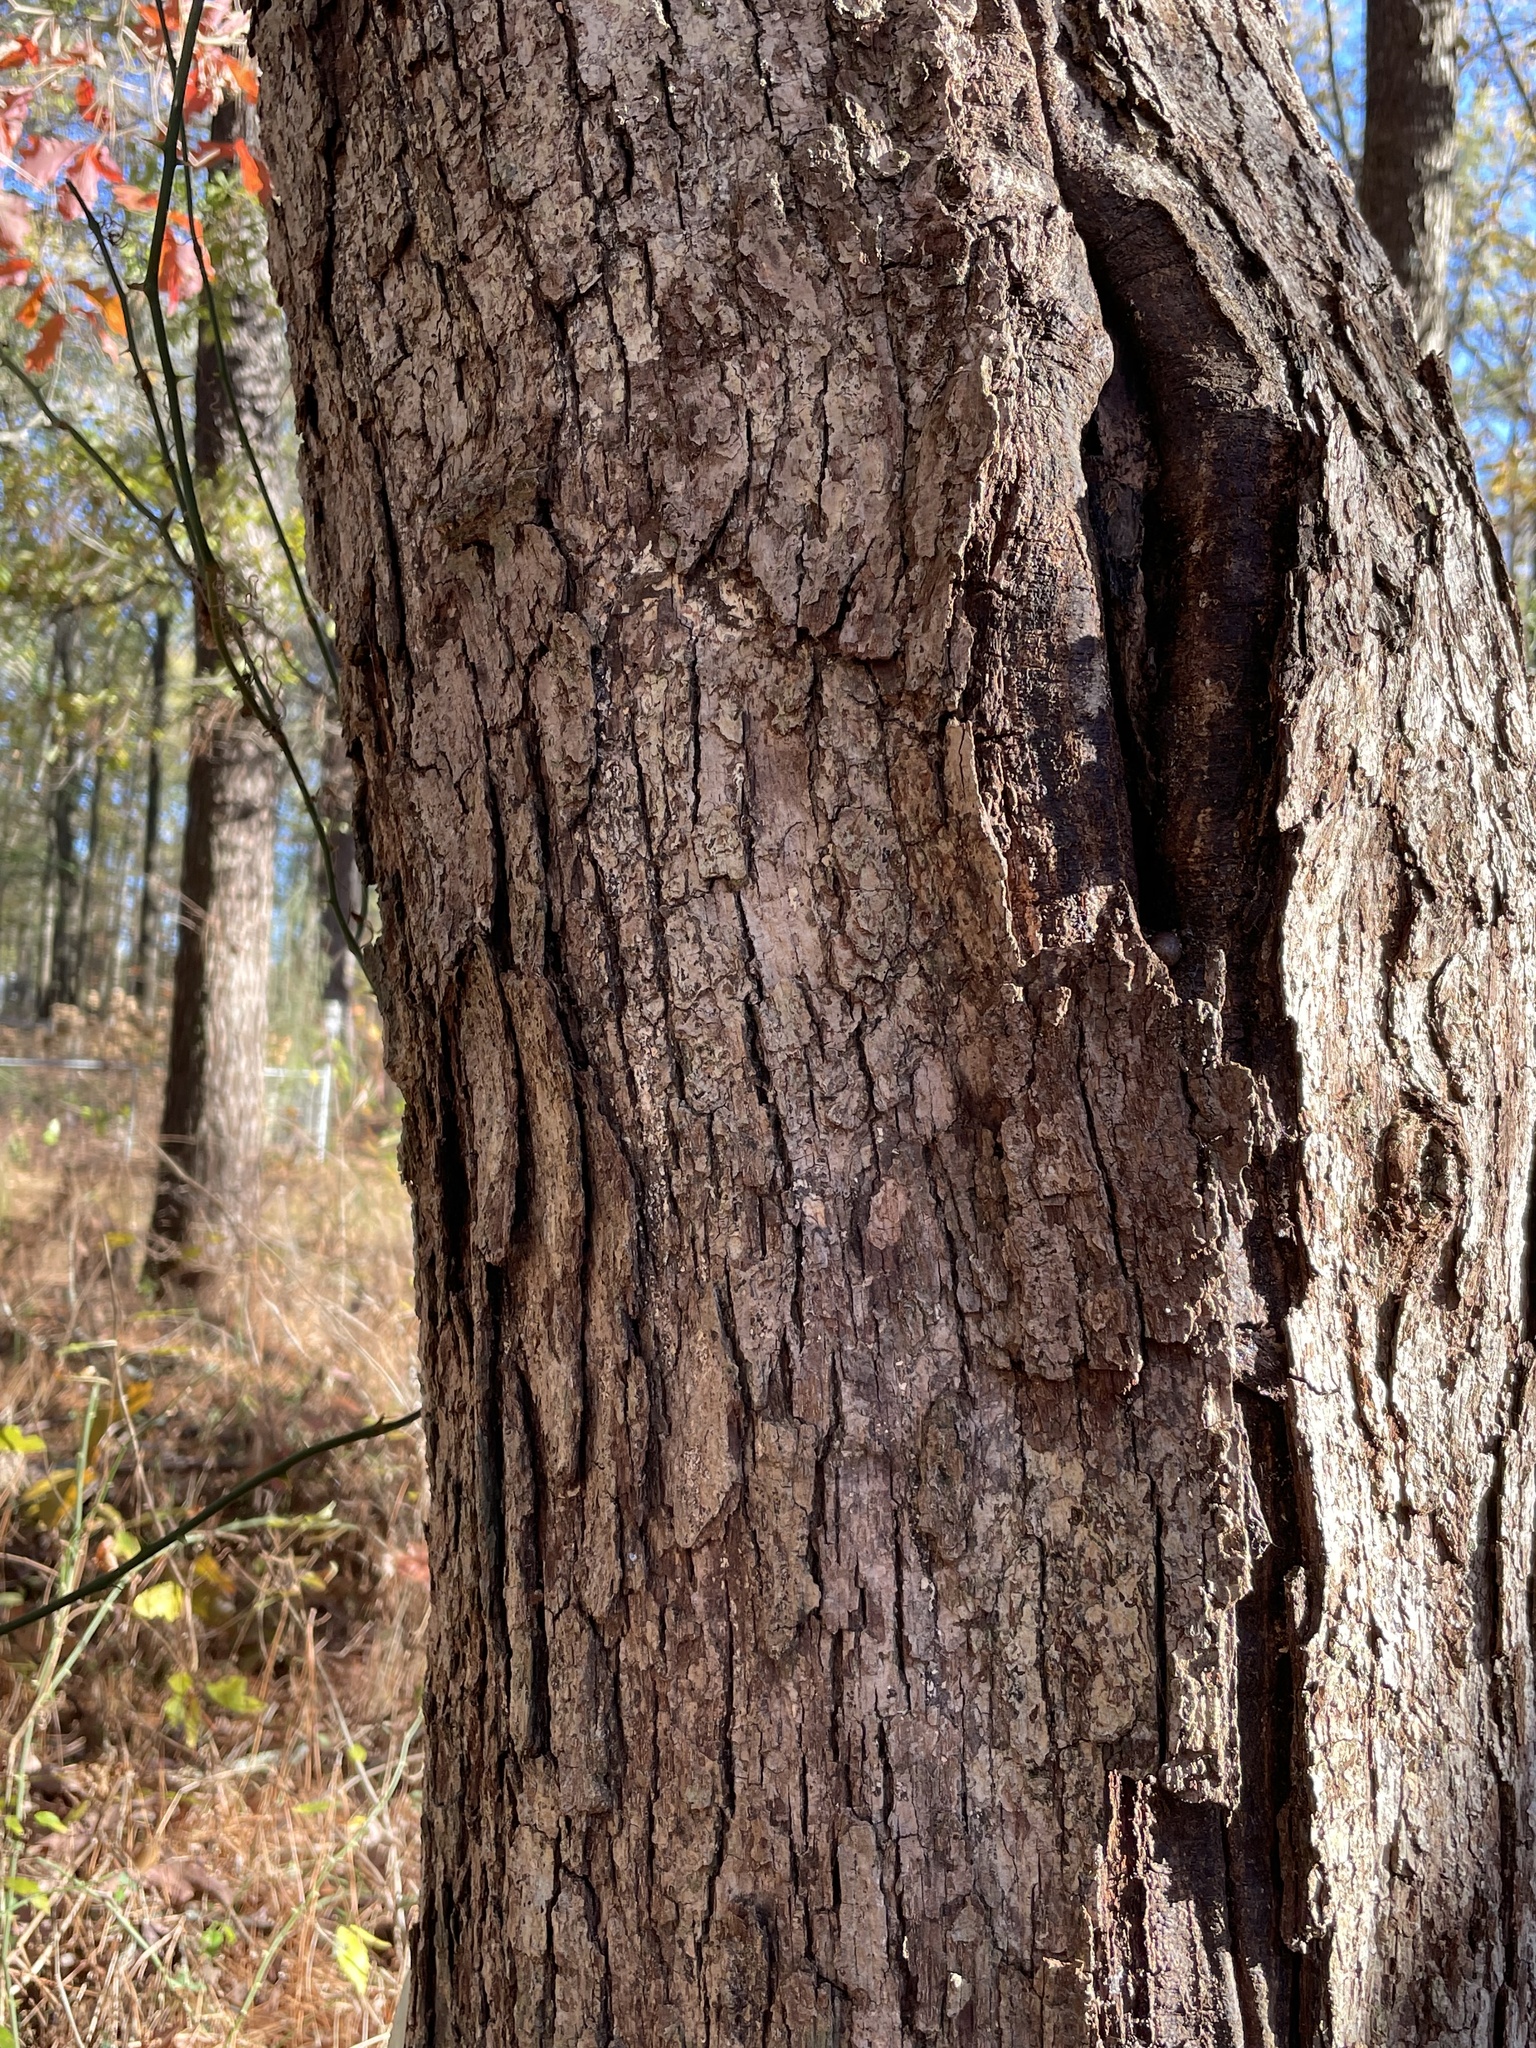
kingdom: Plantae
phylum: Tracheophyta
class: Magnoliopsida
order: Fagales
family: Fagaceae
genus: Quercus
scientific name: Quercus alba
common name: White oak
